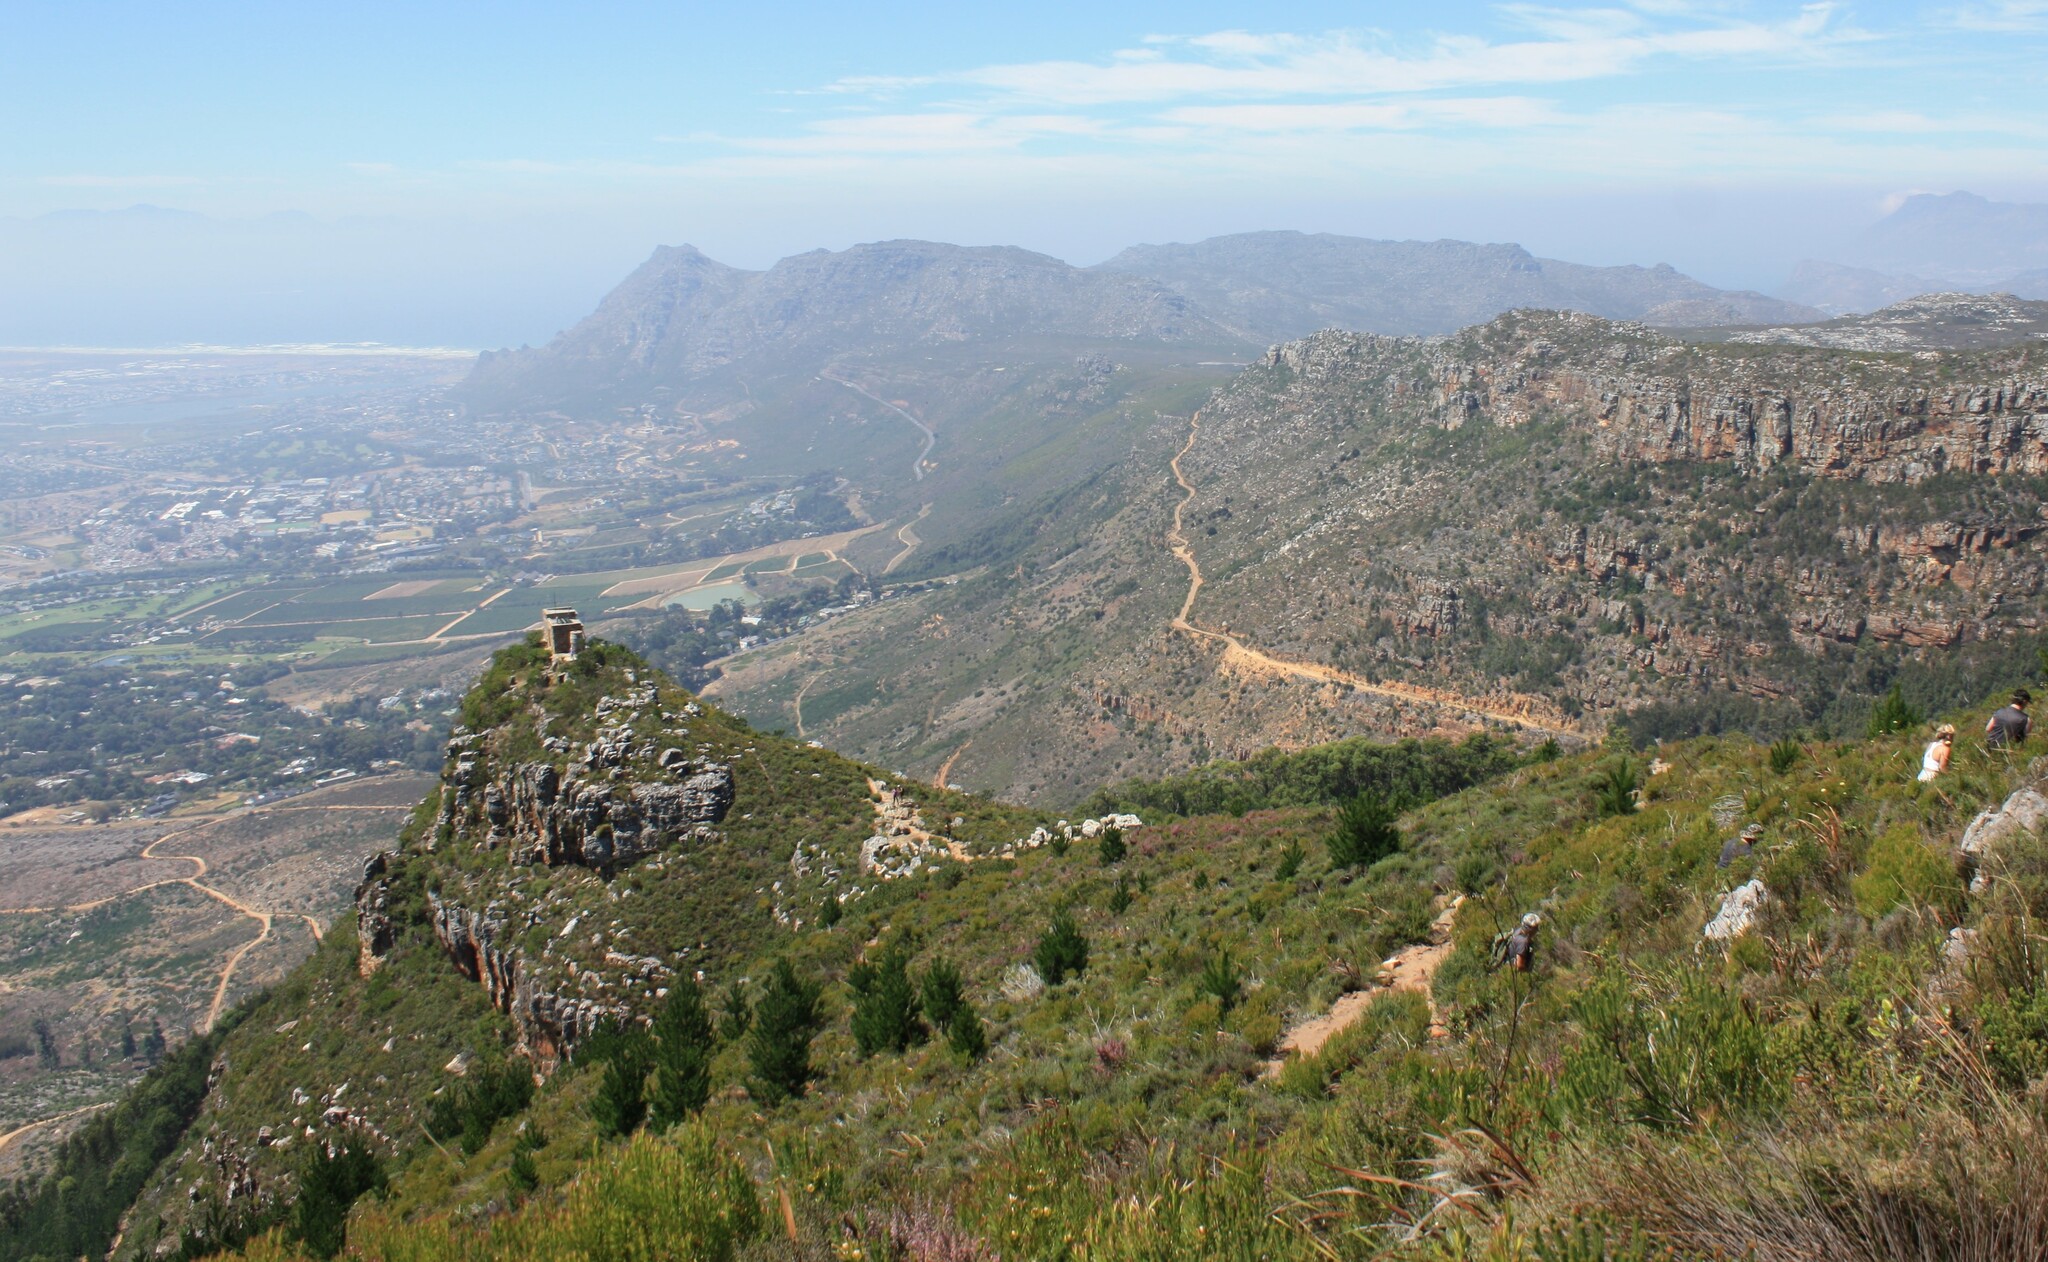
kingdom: Plantae
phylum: Tracheophyta
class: Pinopsida
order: Pinales
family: Pinaceae
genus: Pinus
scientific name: Pinus radiata
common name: Monterey pine
